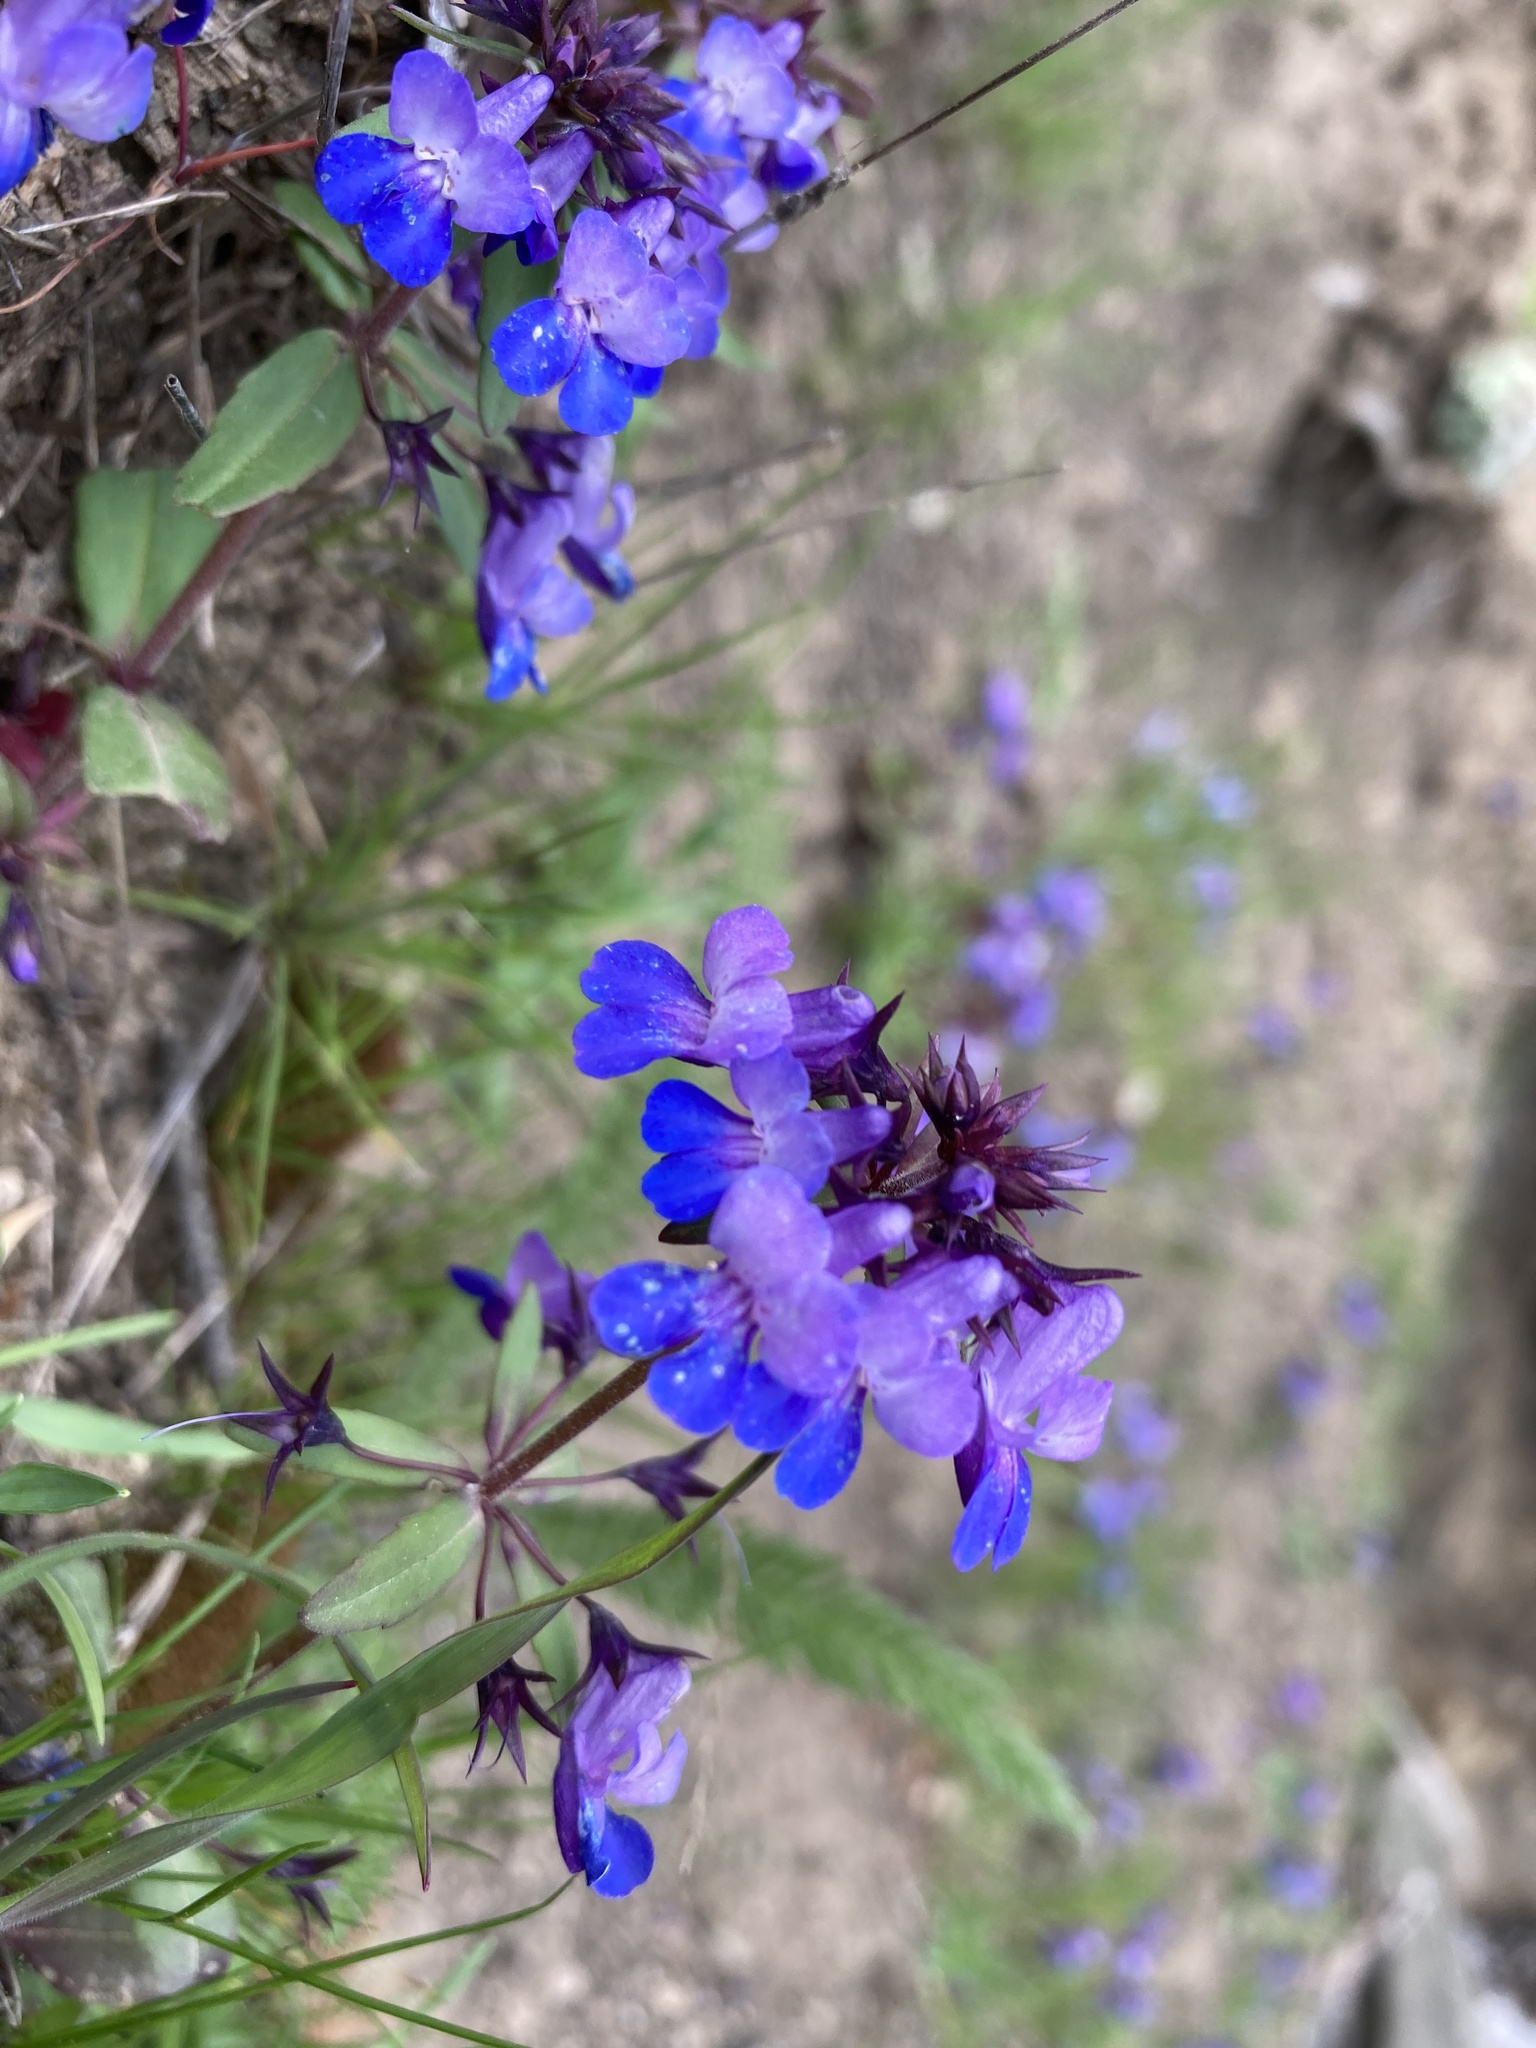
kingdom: Plantae
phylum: Tracheophyta
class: Magnoliopsida
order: Lamiales
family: Plantaginaceae
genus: Collinsia
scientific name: Collinsia grandiflora
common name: Large-flower blue-eyed-mary
